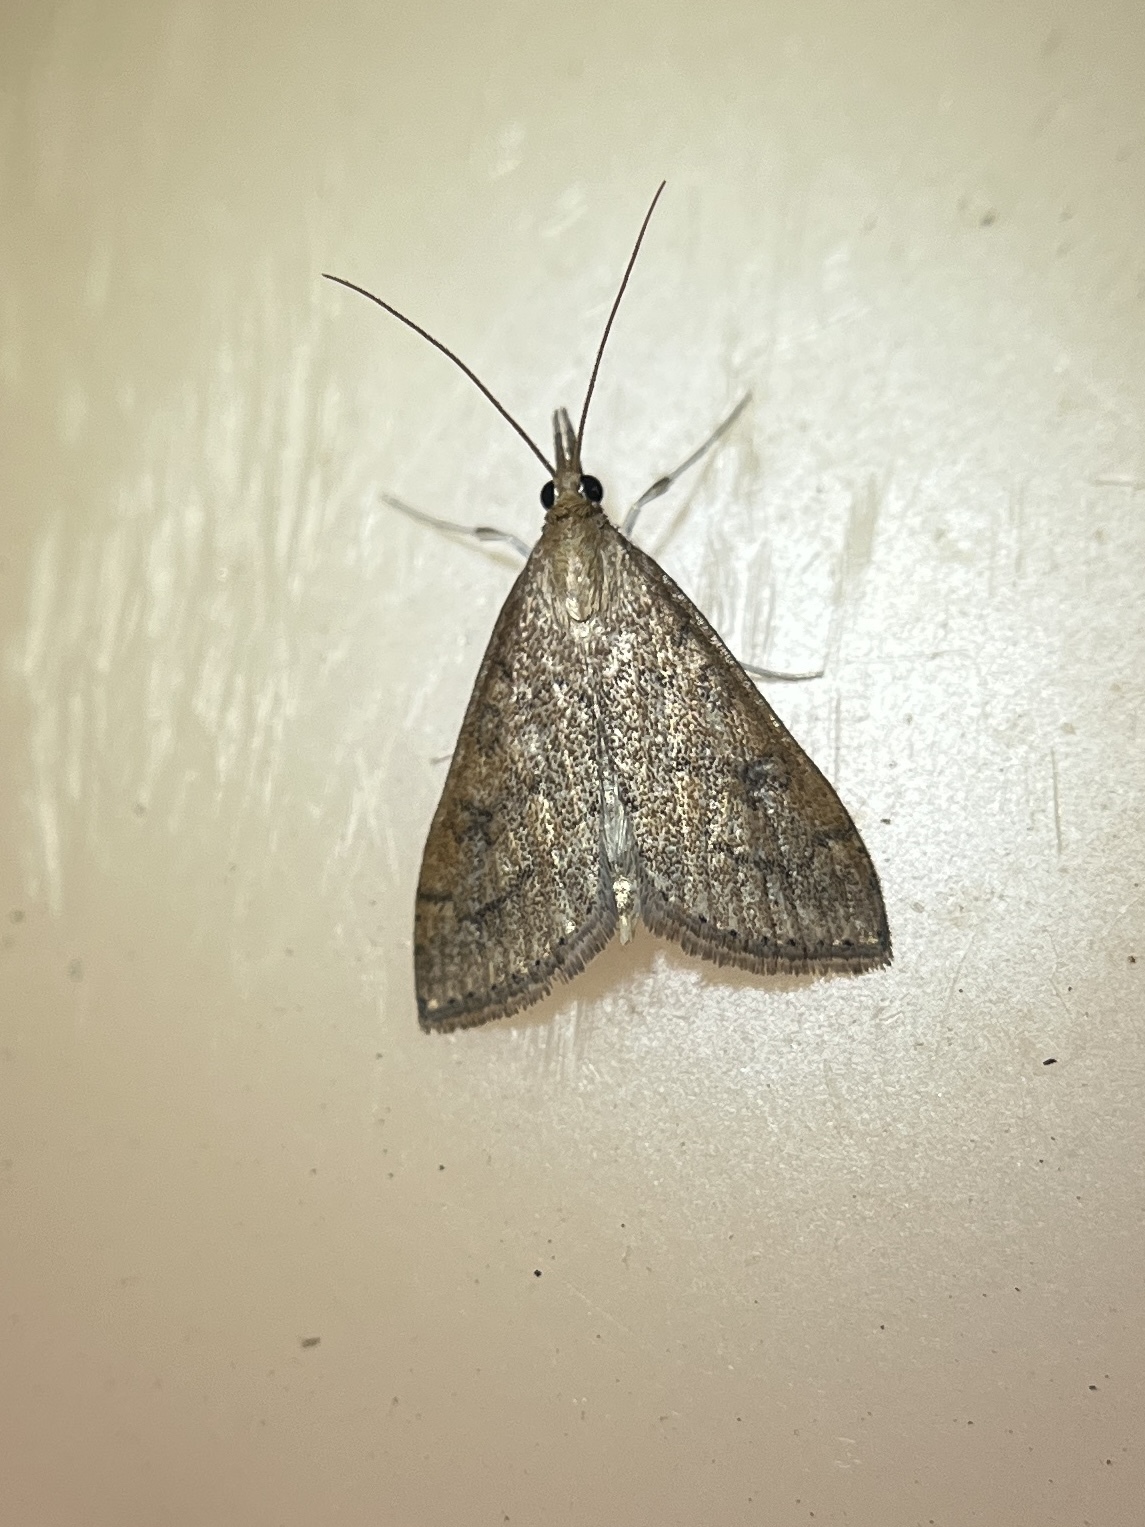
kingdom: Animalia
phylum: Arthropoda
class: Insecta
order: Lepidoptera
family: Crambidae
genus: Udea
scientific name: Udea rubigalis
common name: Celery leaftier moth
